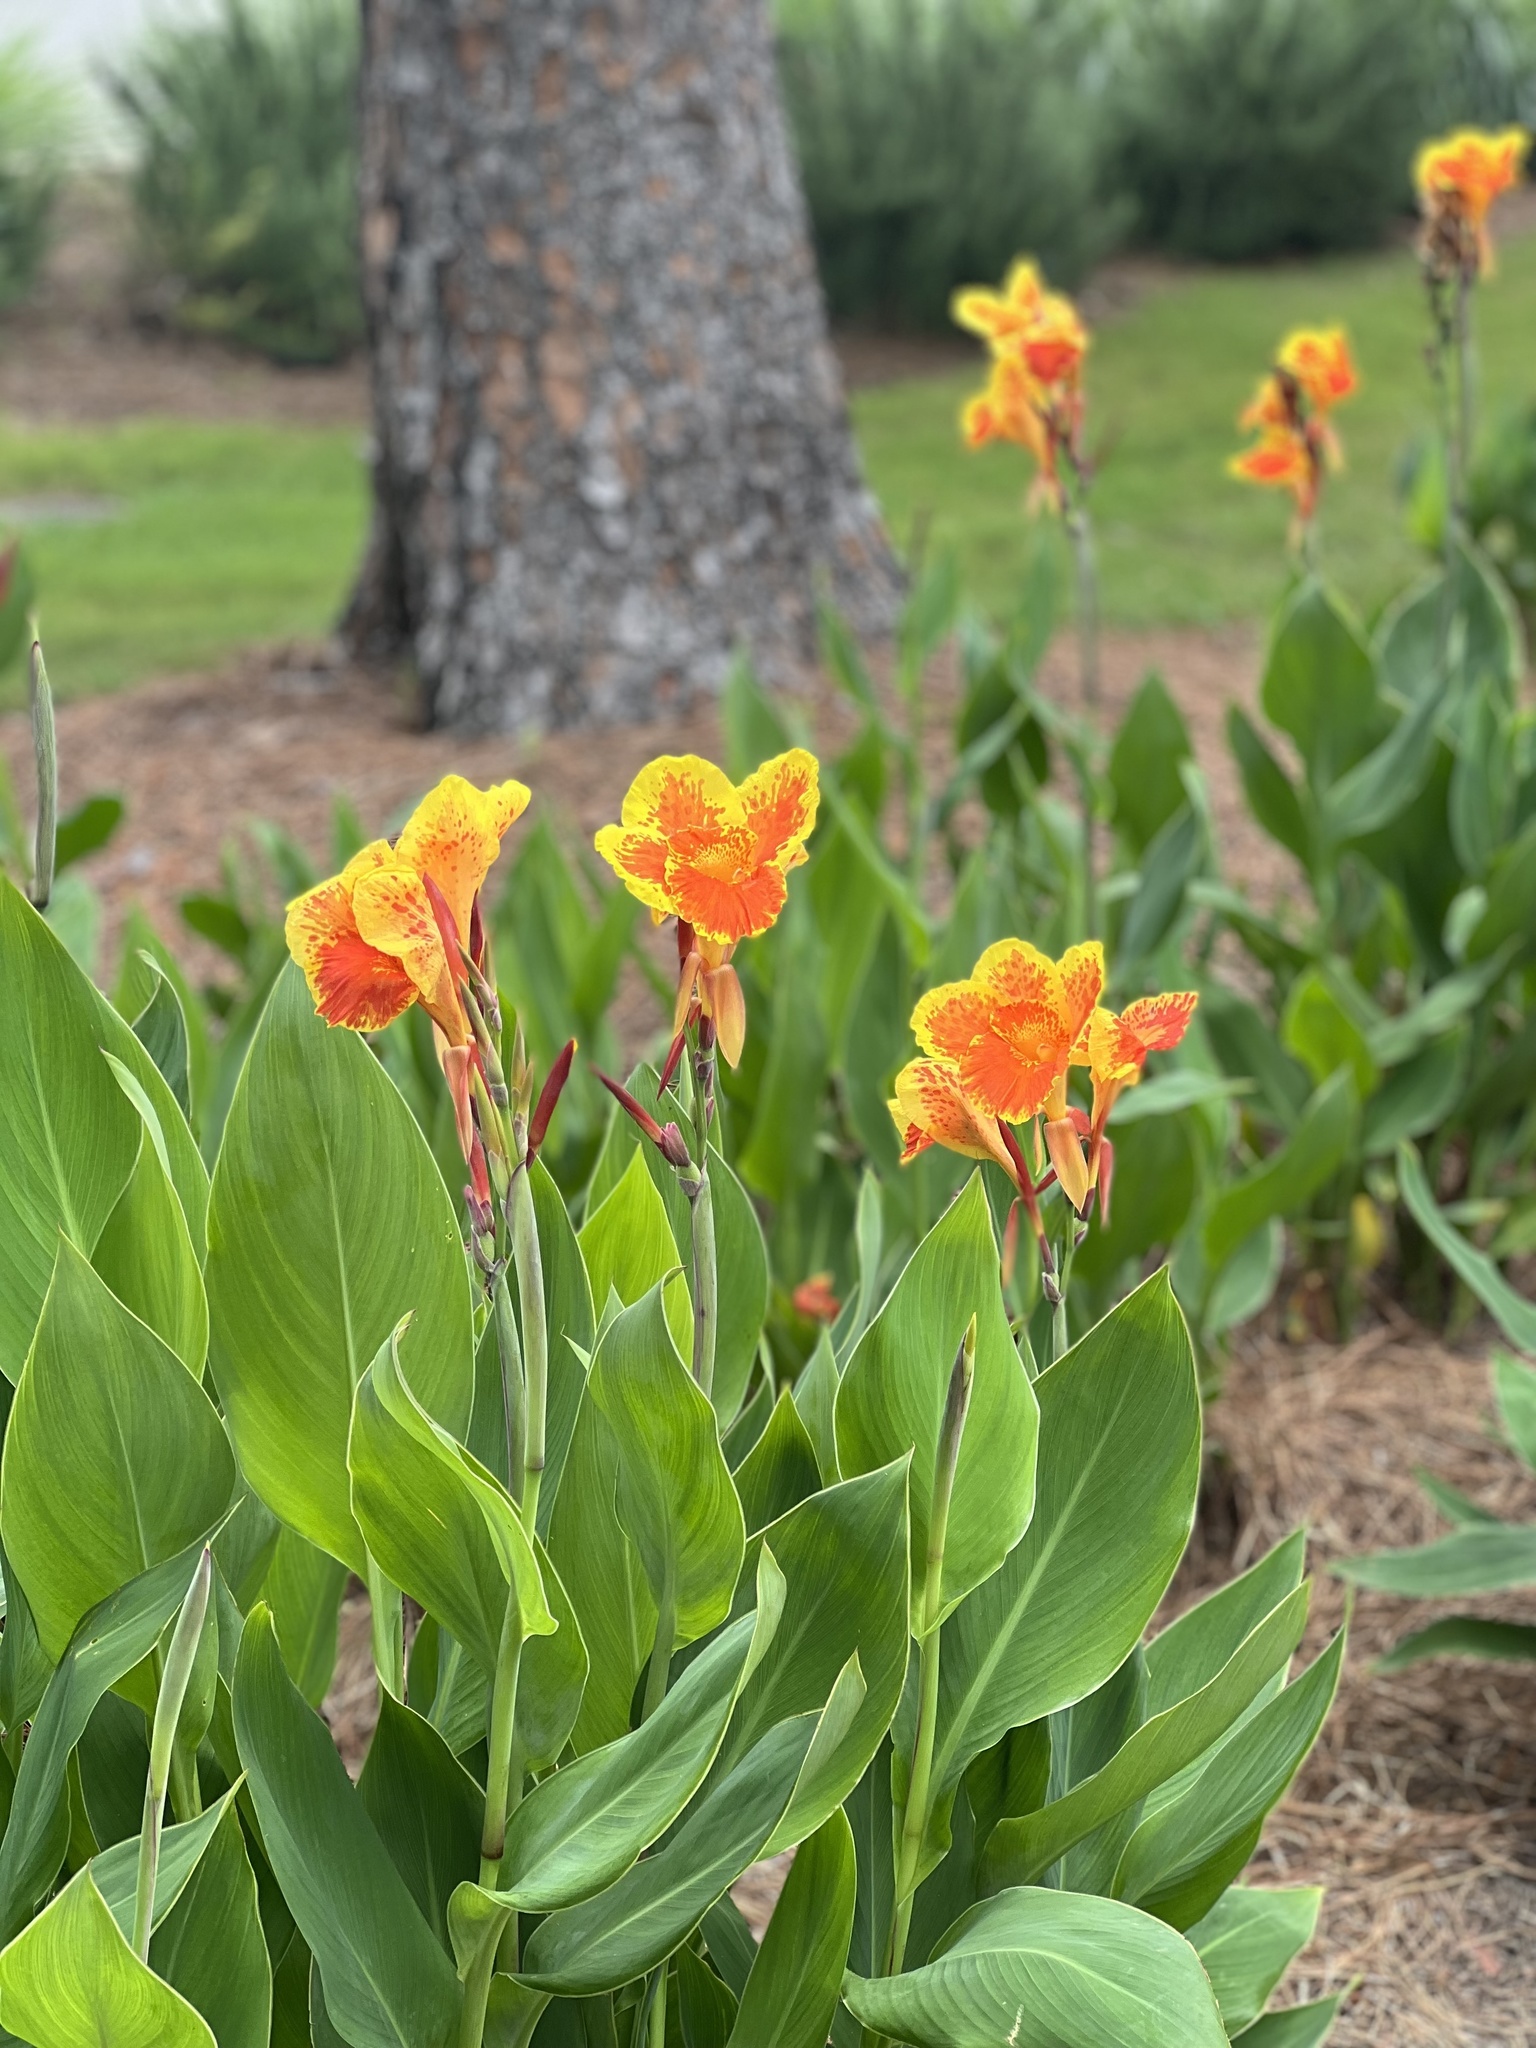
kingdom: Plantae
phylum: Tracheophyta
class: Liliopsida
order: Zingiberales
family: Cannaceae
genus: Canna
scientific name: Canna hybrida
